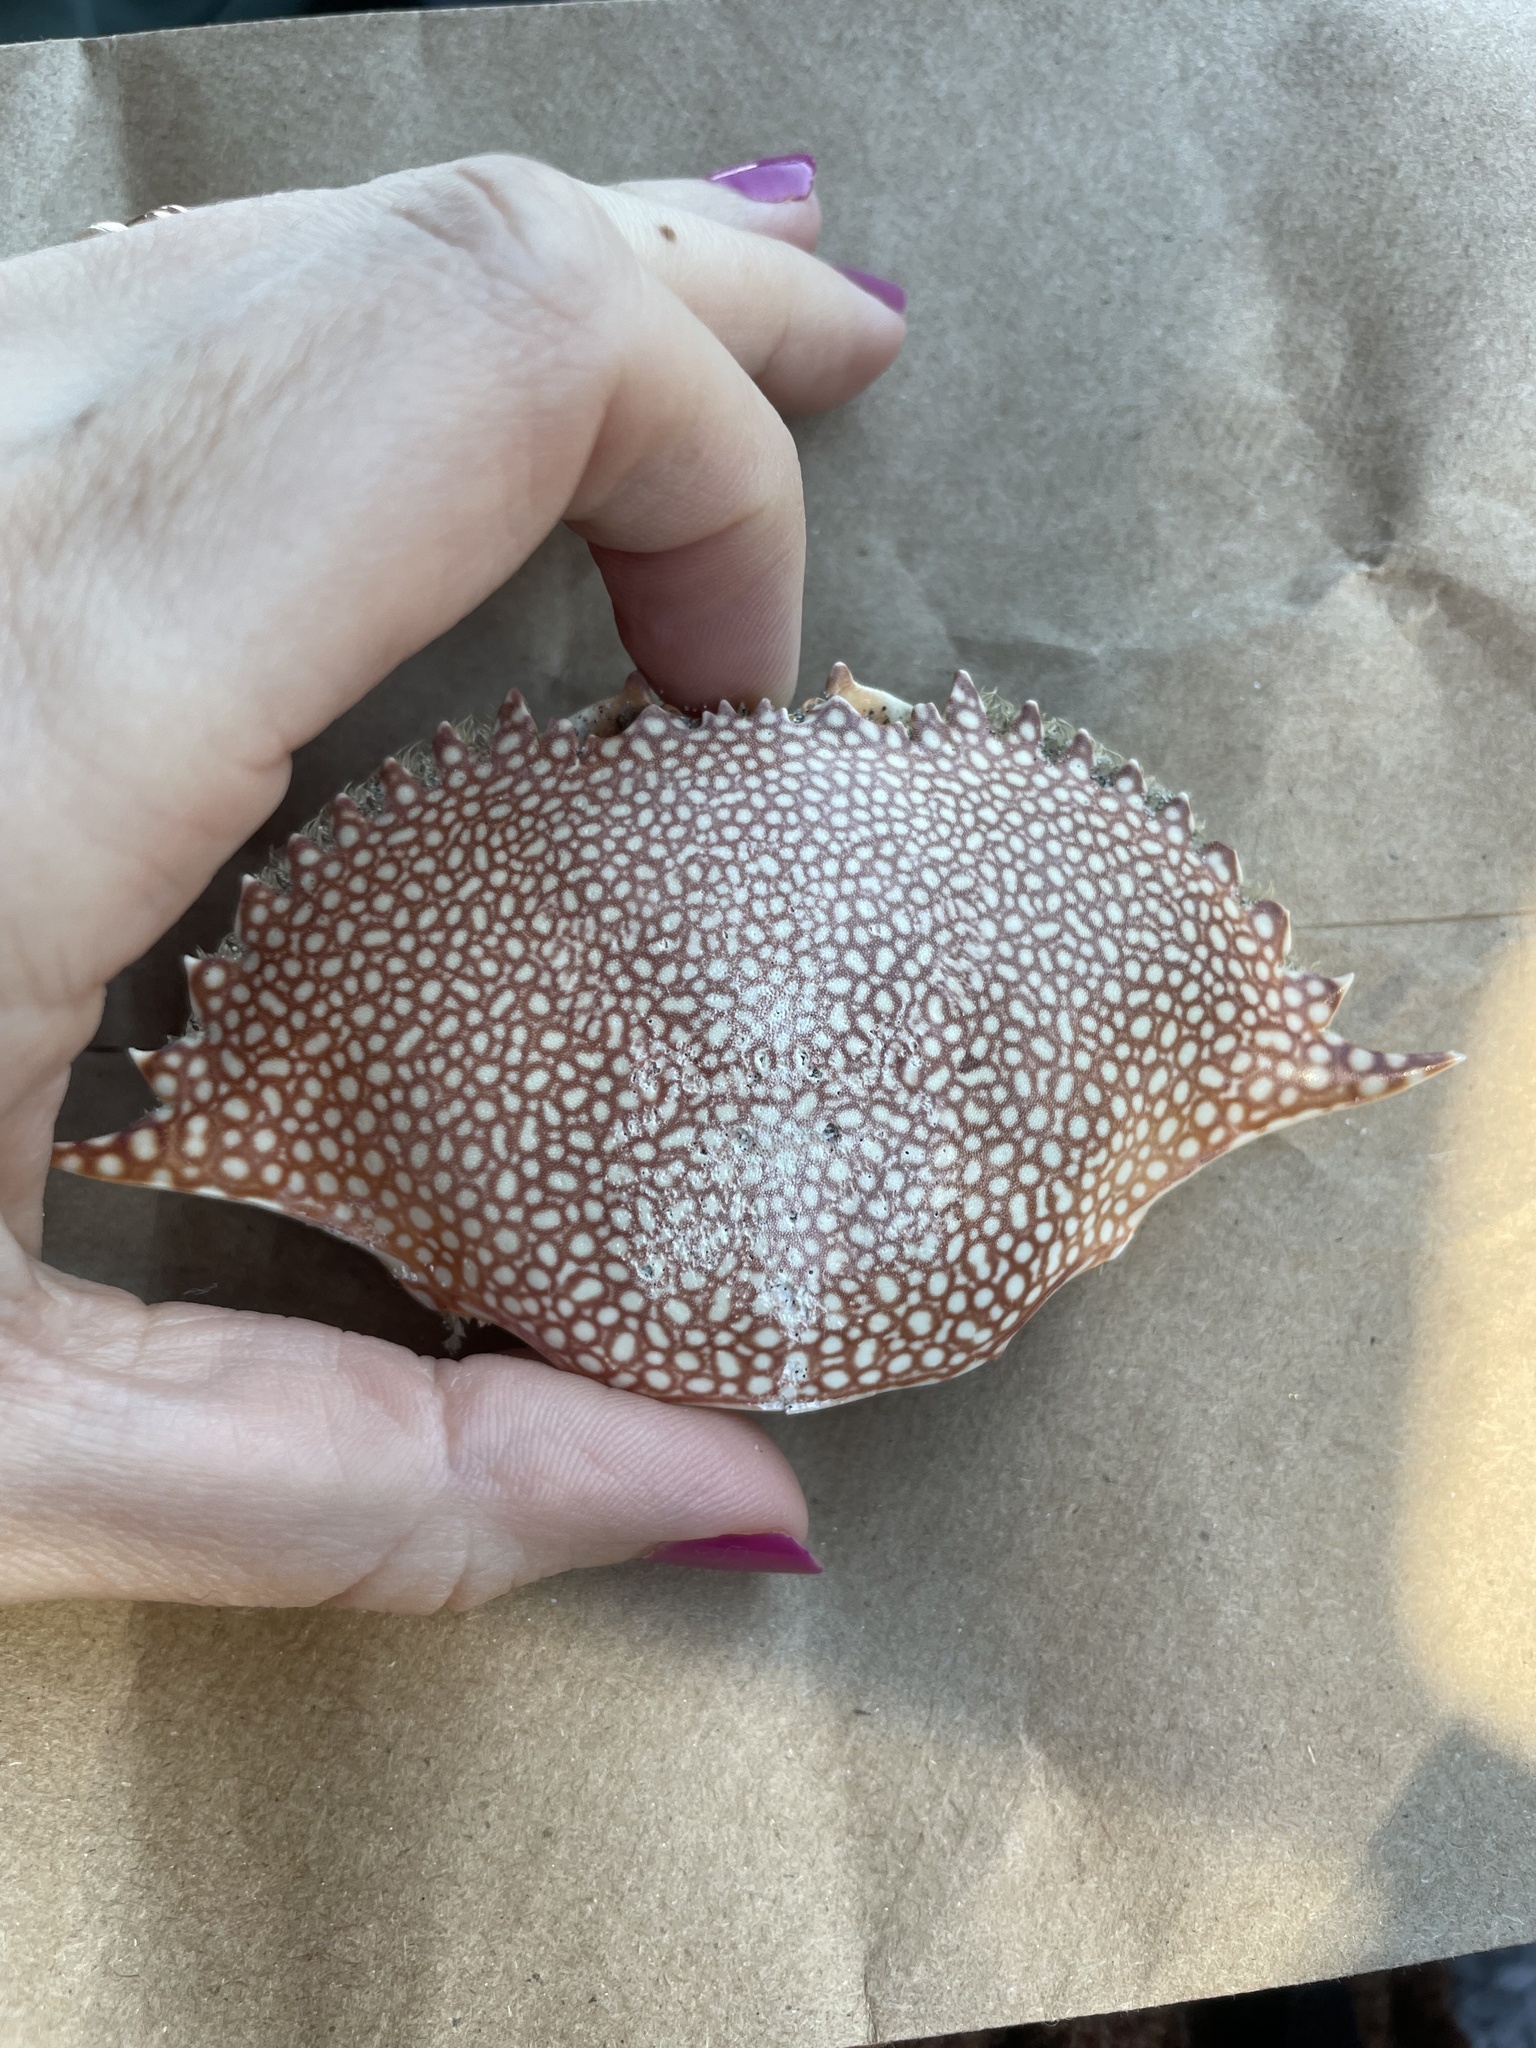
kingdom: Animalia
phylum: Arthropoda
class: Malacostraca
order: Decapoda
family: Portunidae
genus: Arenaeus
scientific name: Arenaeus cribrarius
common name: Speckled crab
